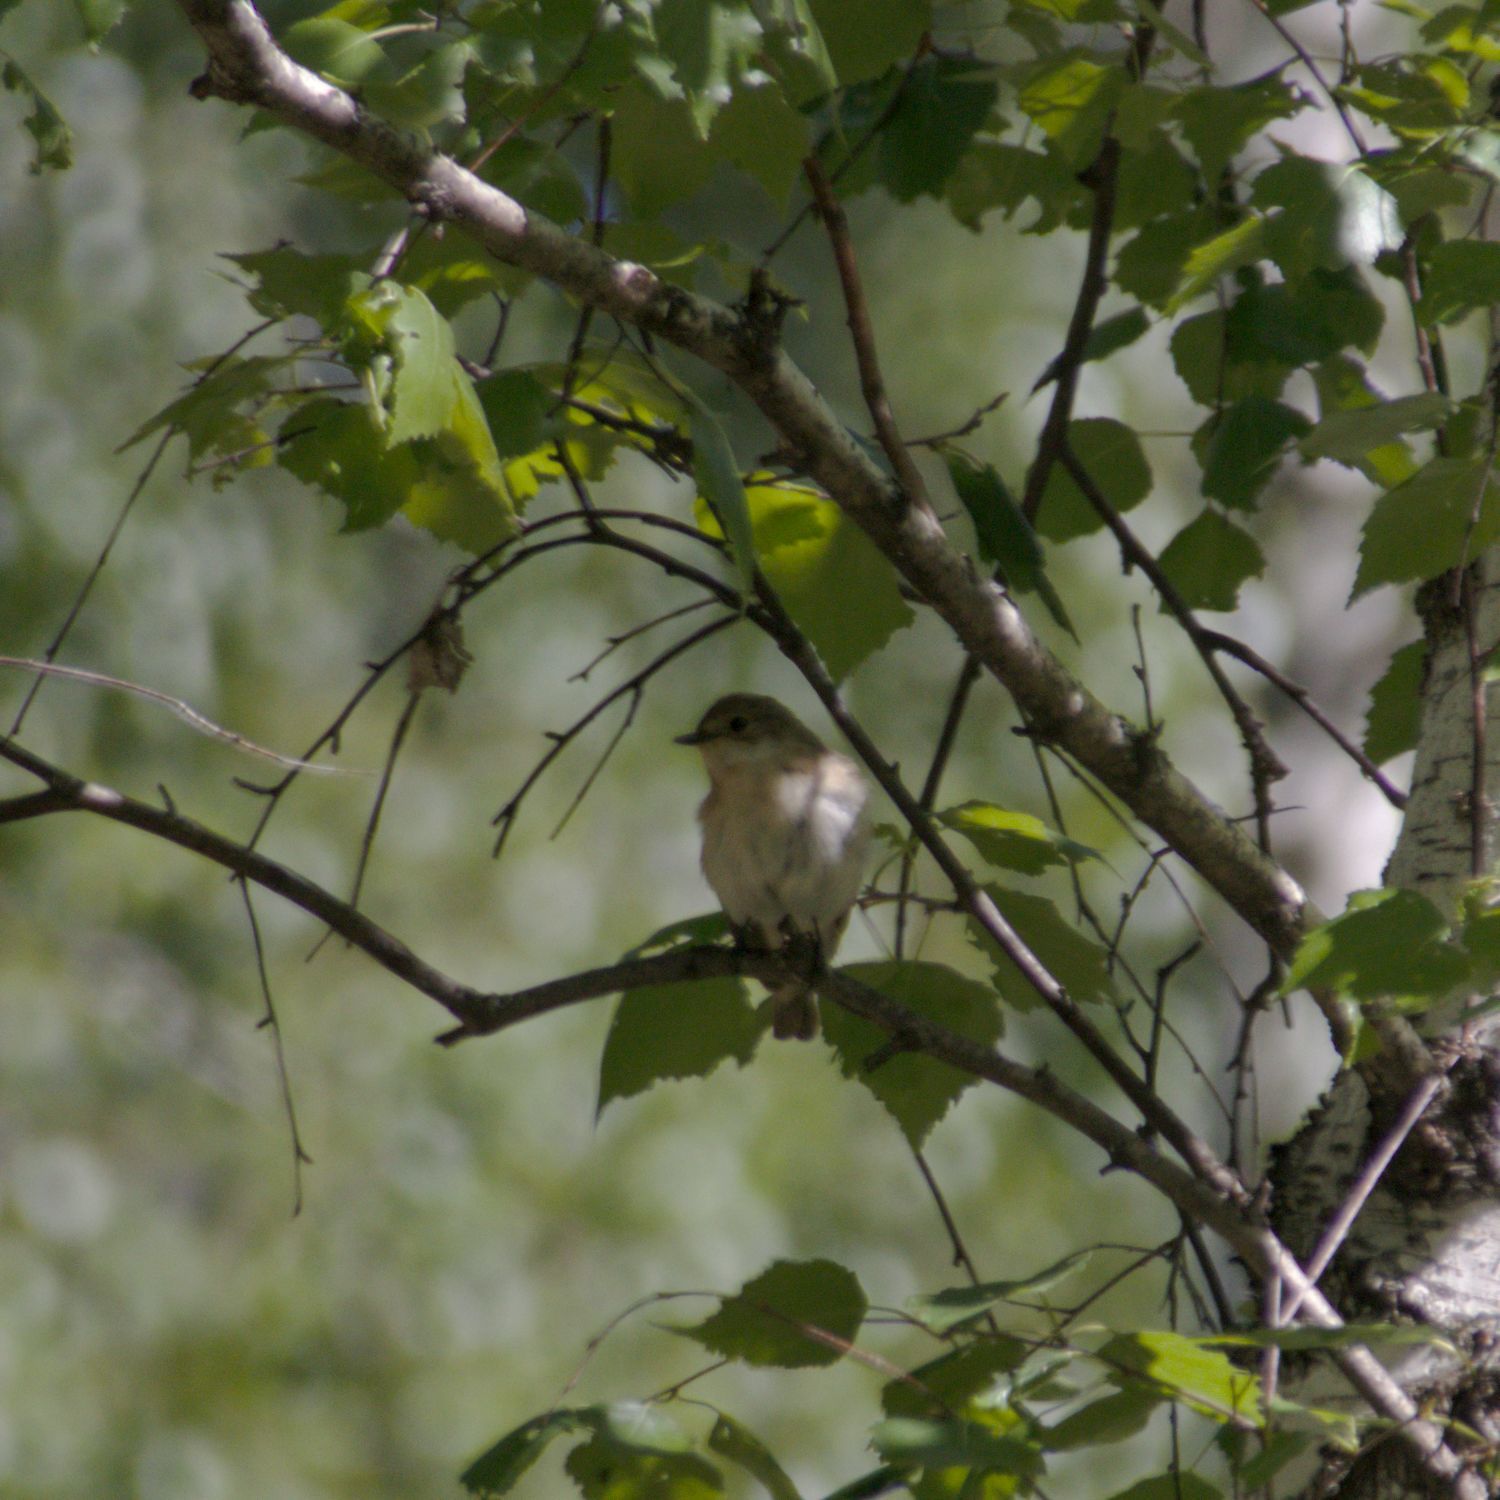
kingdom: Animalia
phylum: Chordata
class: Aves
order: Passeriformes
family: Muscicapidae
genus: Ficedula
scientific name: Ficedula parva
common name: Red-breasted flycatcher
